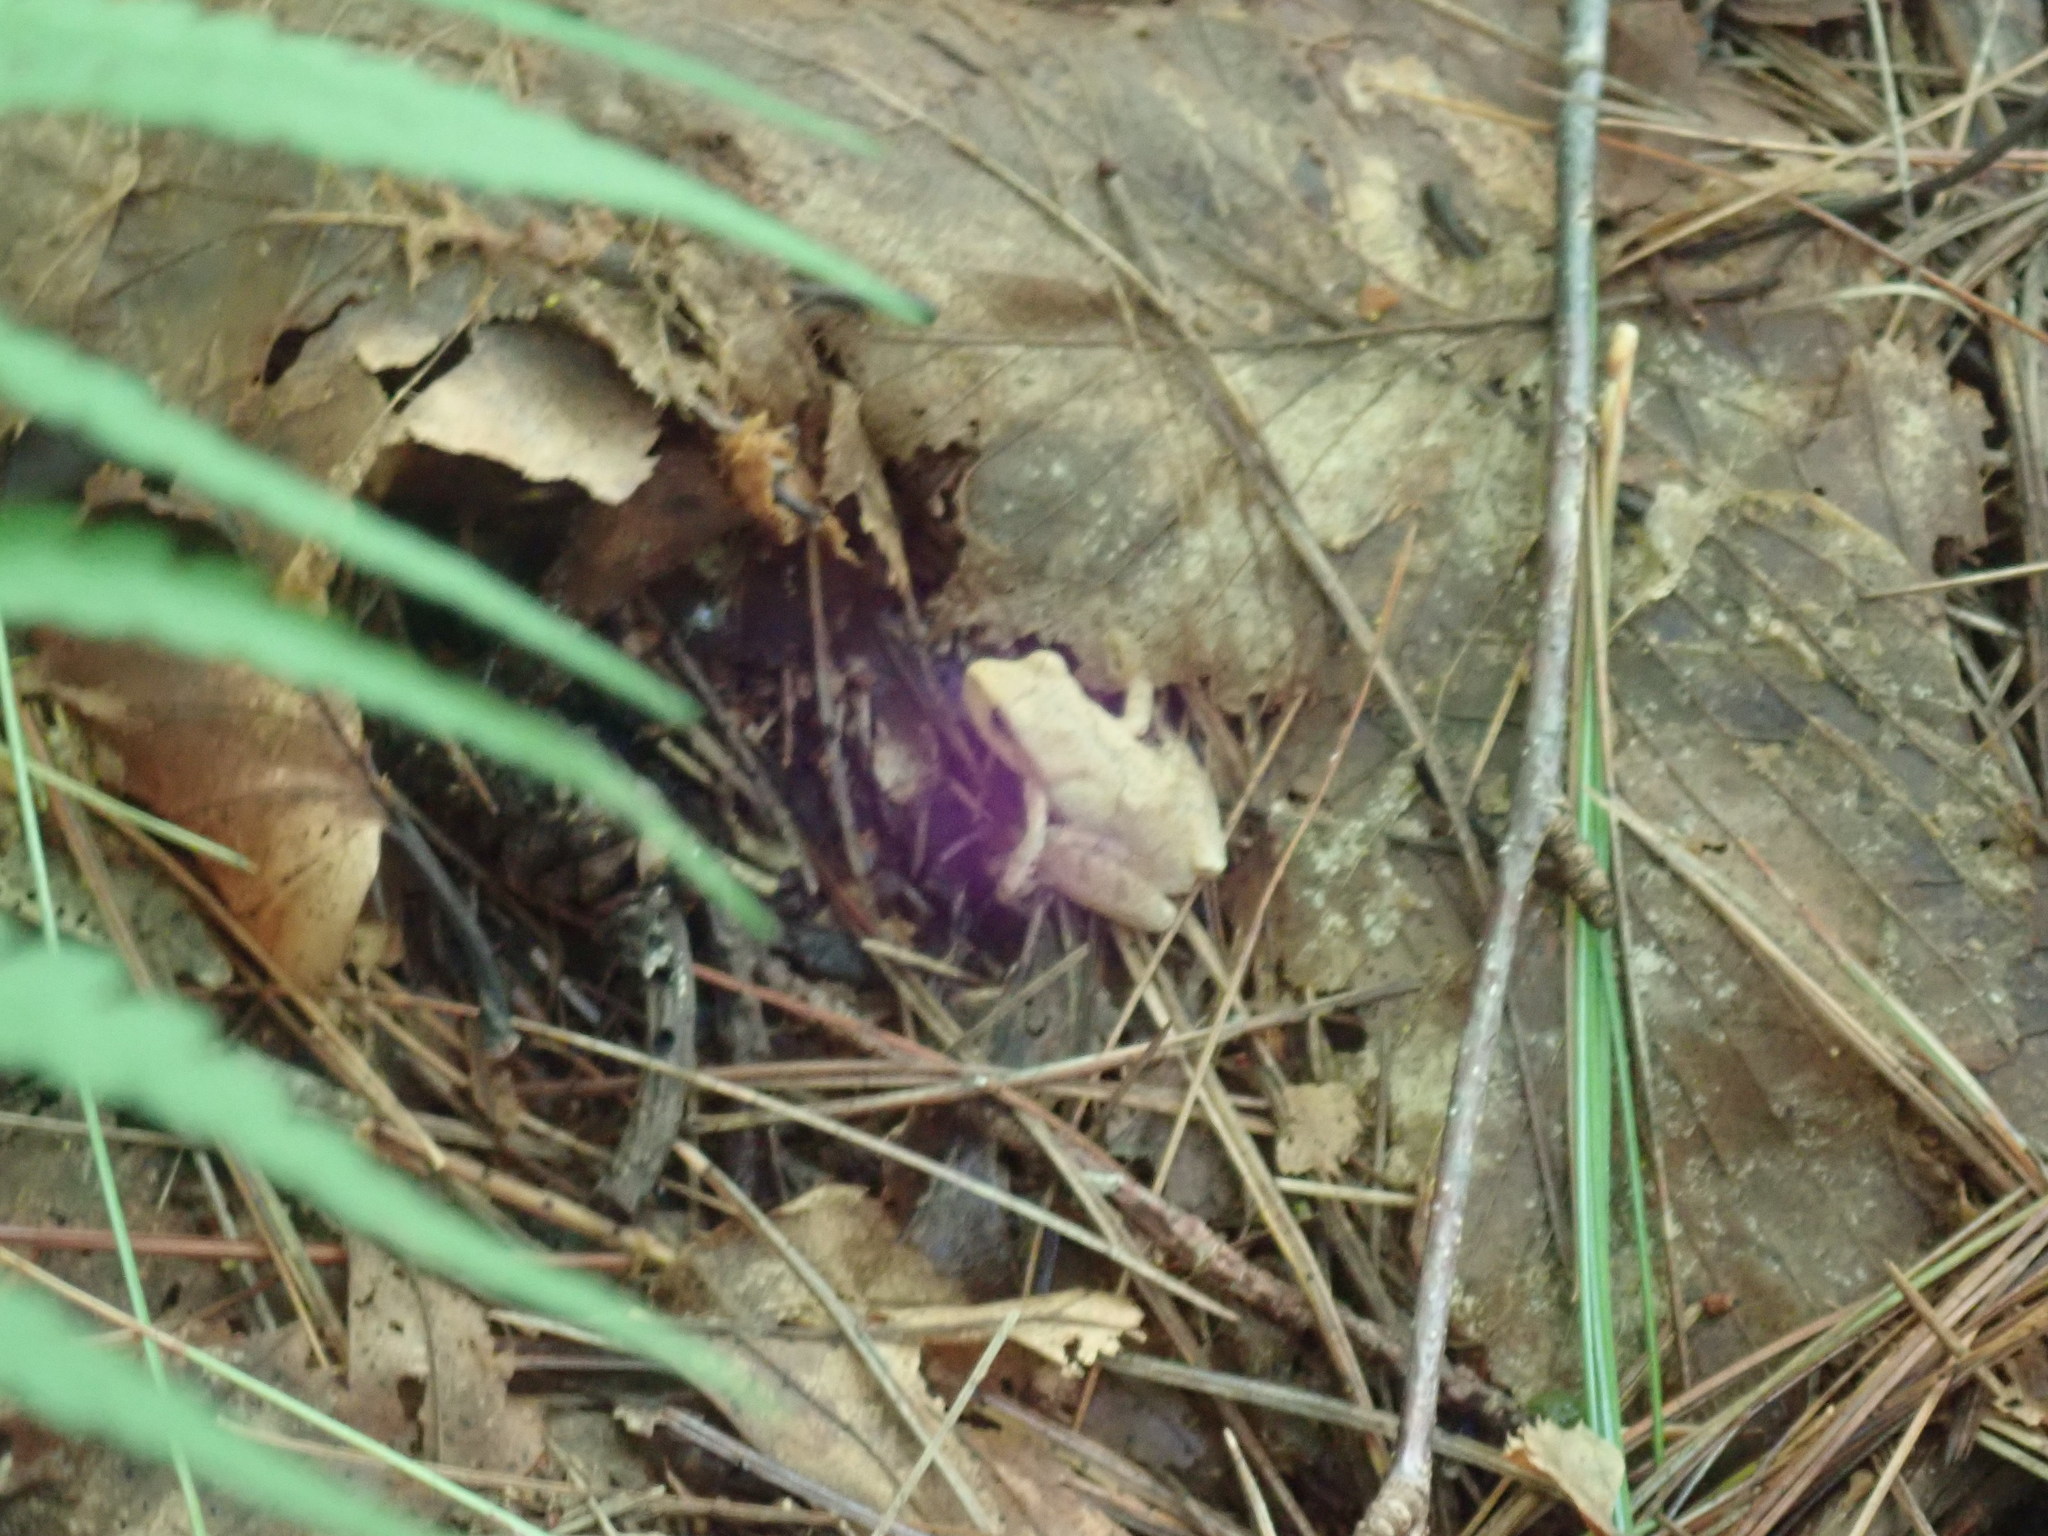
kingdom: Animalia
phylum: Chordata
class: Amphibia
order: Anura
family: Hylidae
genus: Pseudacris
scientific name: Pseudacris crucifer
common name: Spring peeper
